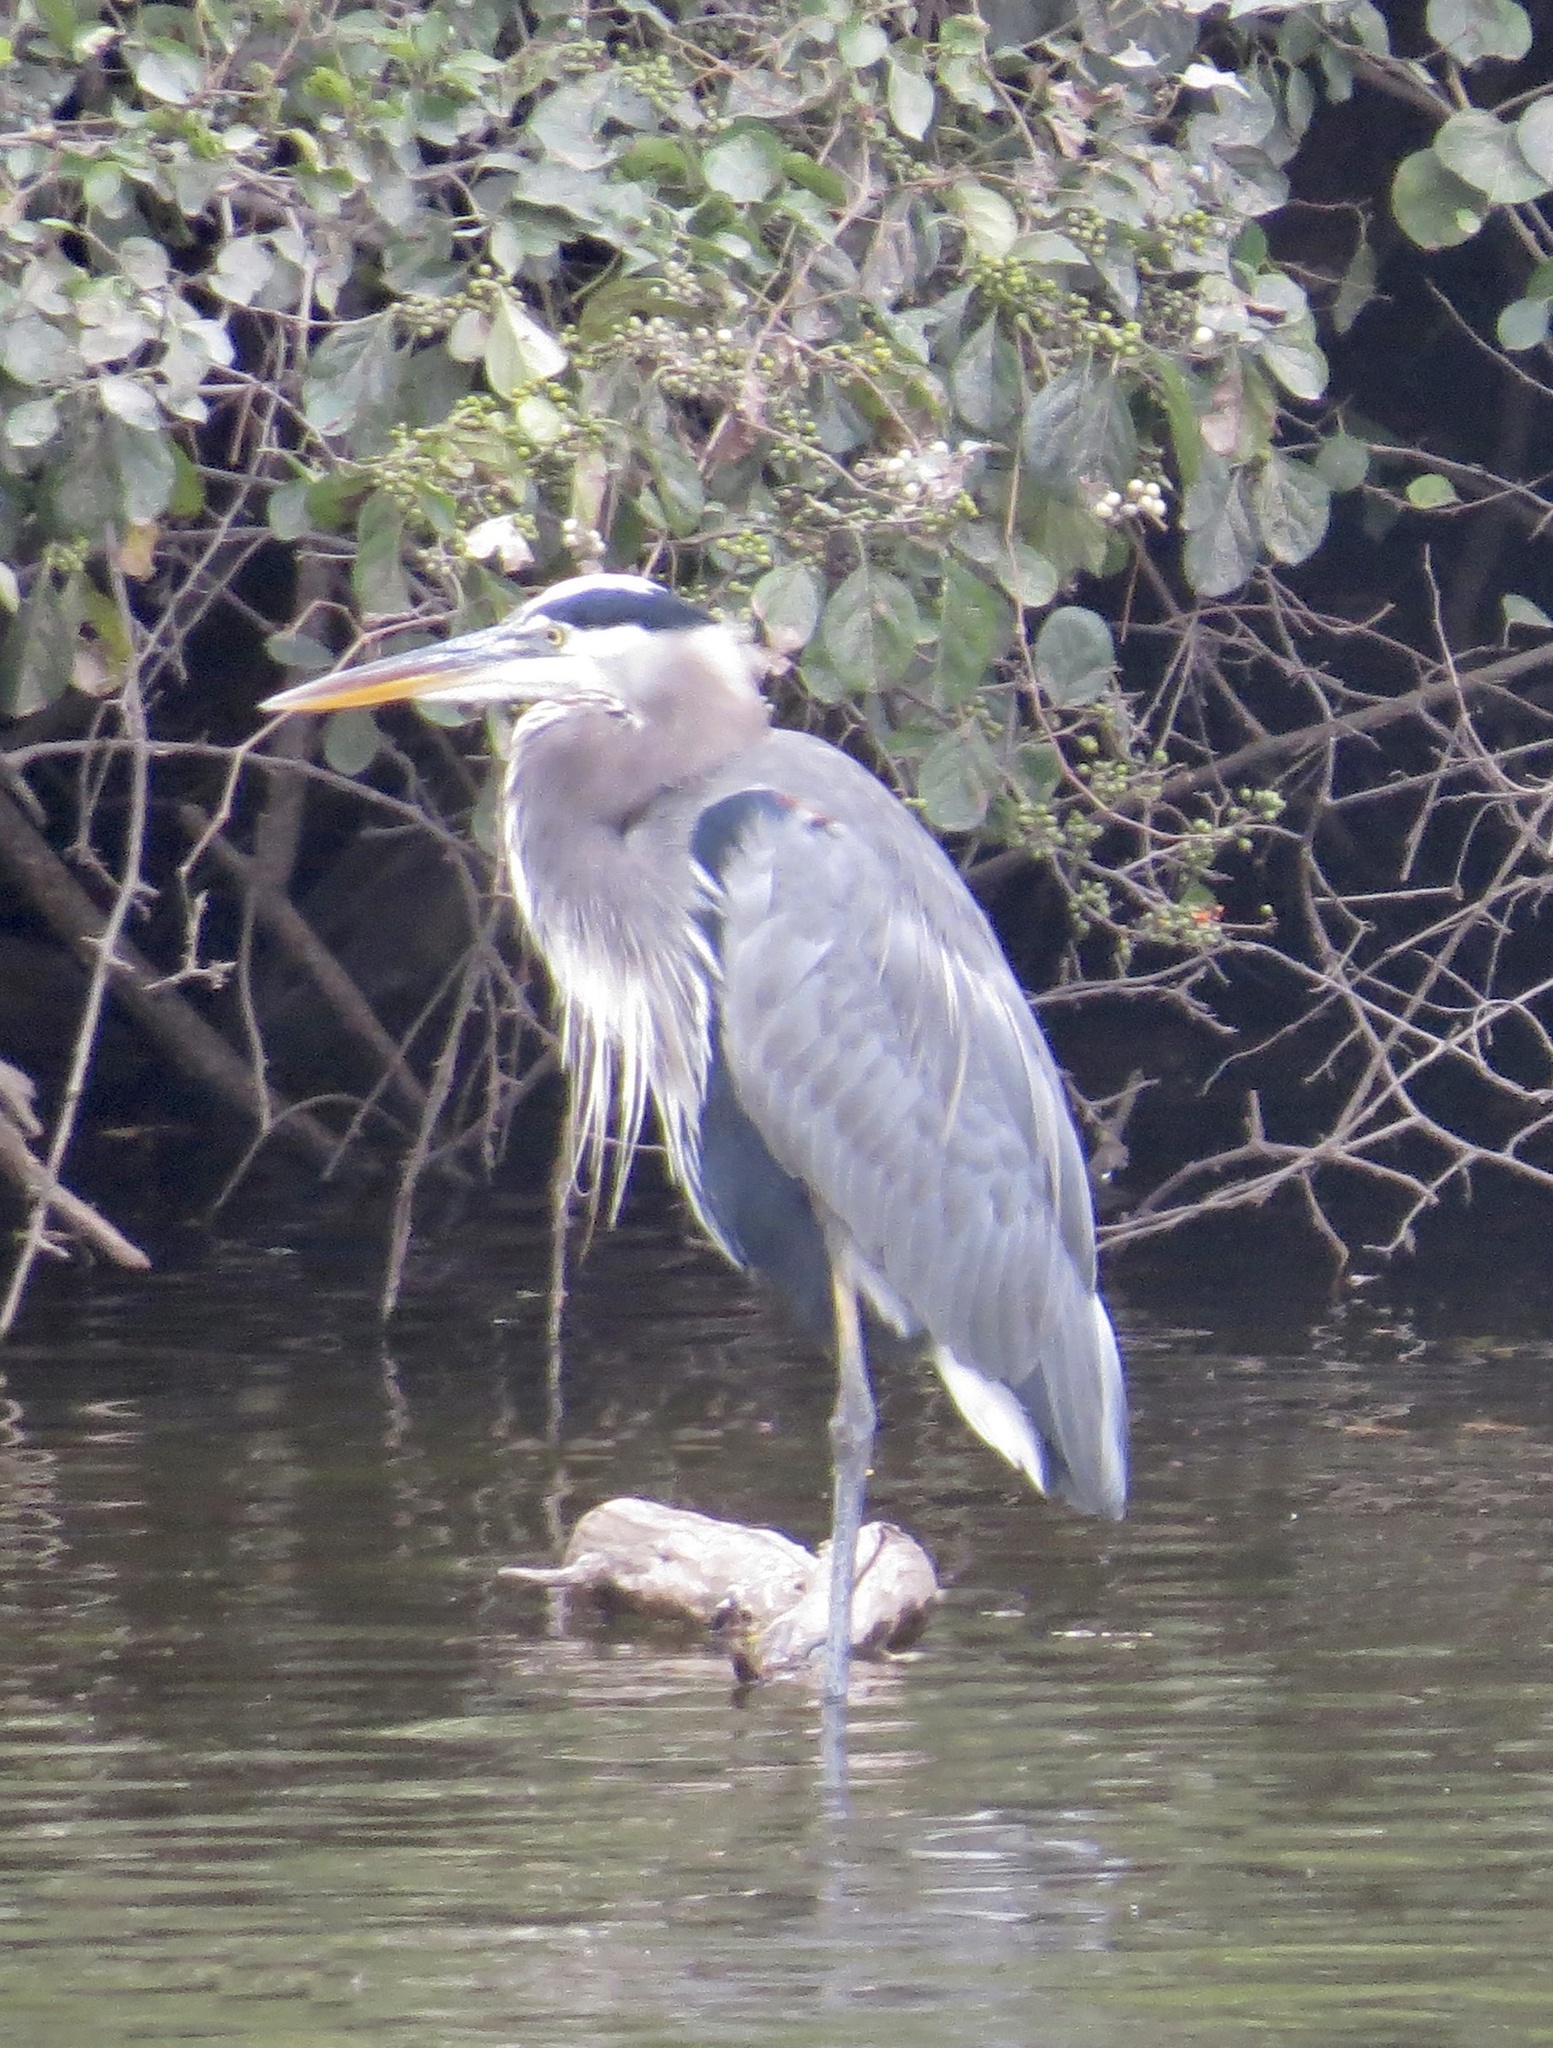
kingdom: Animalia
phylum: Chordata
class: Aves
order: Pelecaniformes
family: Ardeidae
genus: Ardea
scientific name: Ardea herodias
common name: Great blue heron
